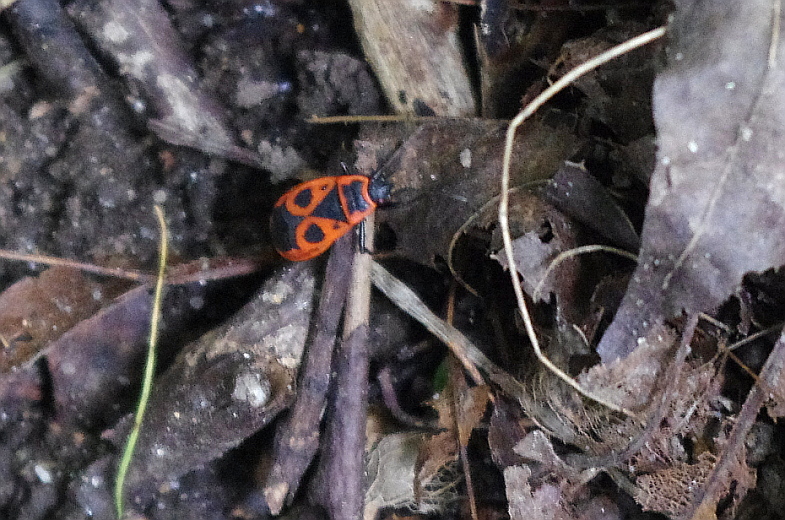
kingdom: Animalia
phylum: Arthropoda
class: Insecta
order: Hemiptera
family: Pyrrhocoridae
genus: Pyrrhocoris
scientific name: Pyrrhocoris apterus
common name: Firebug
